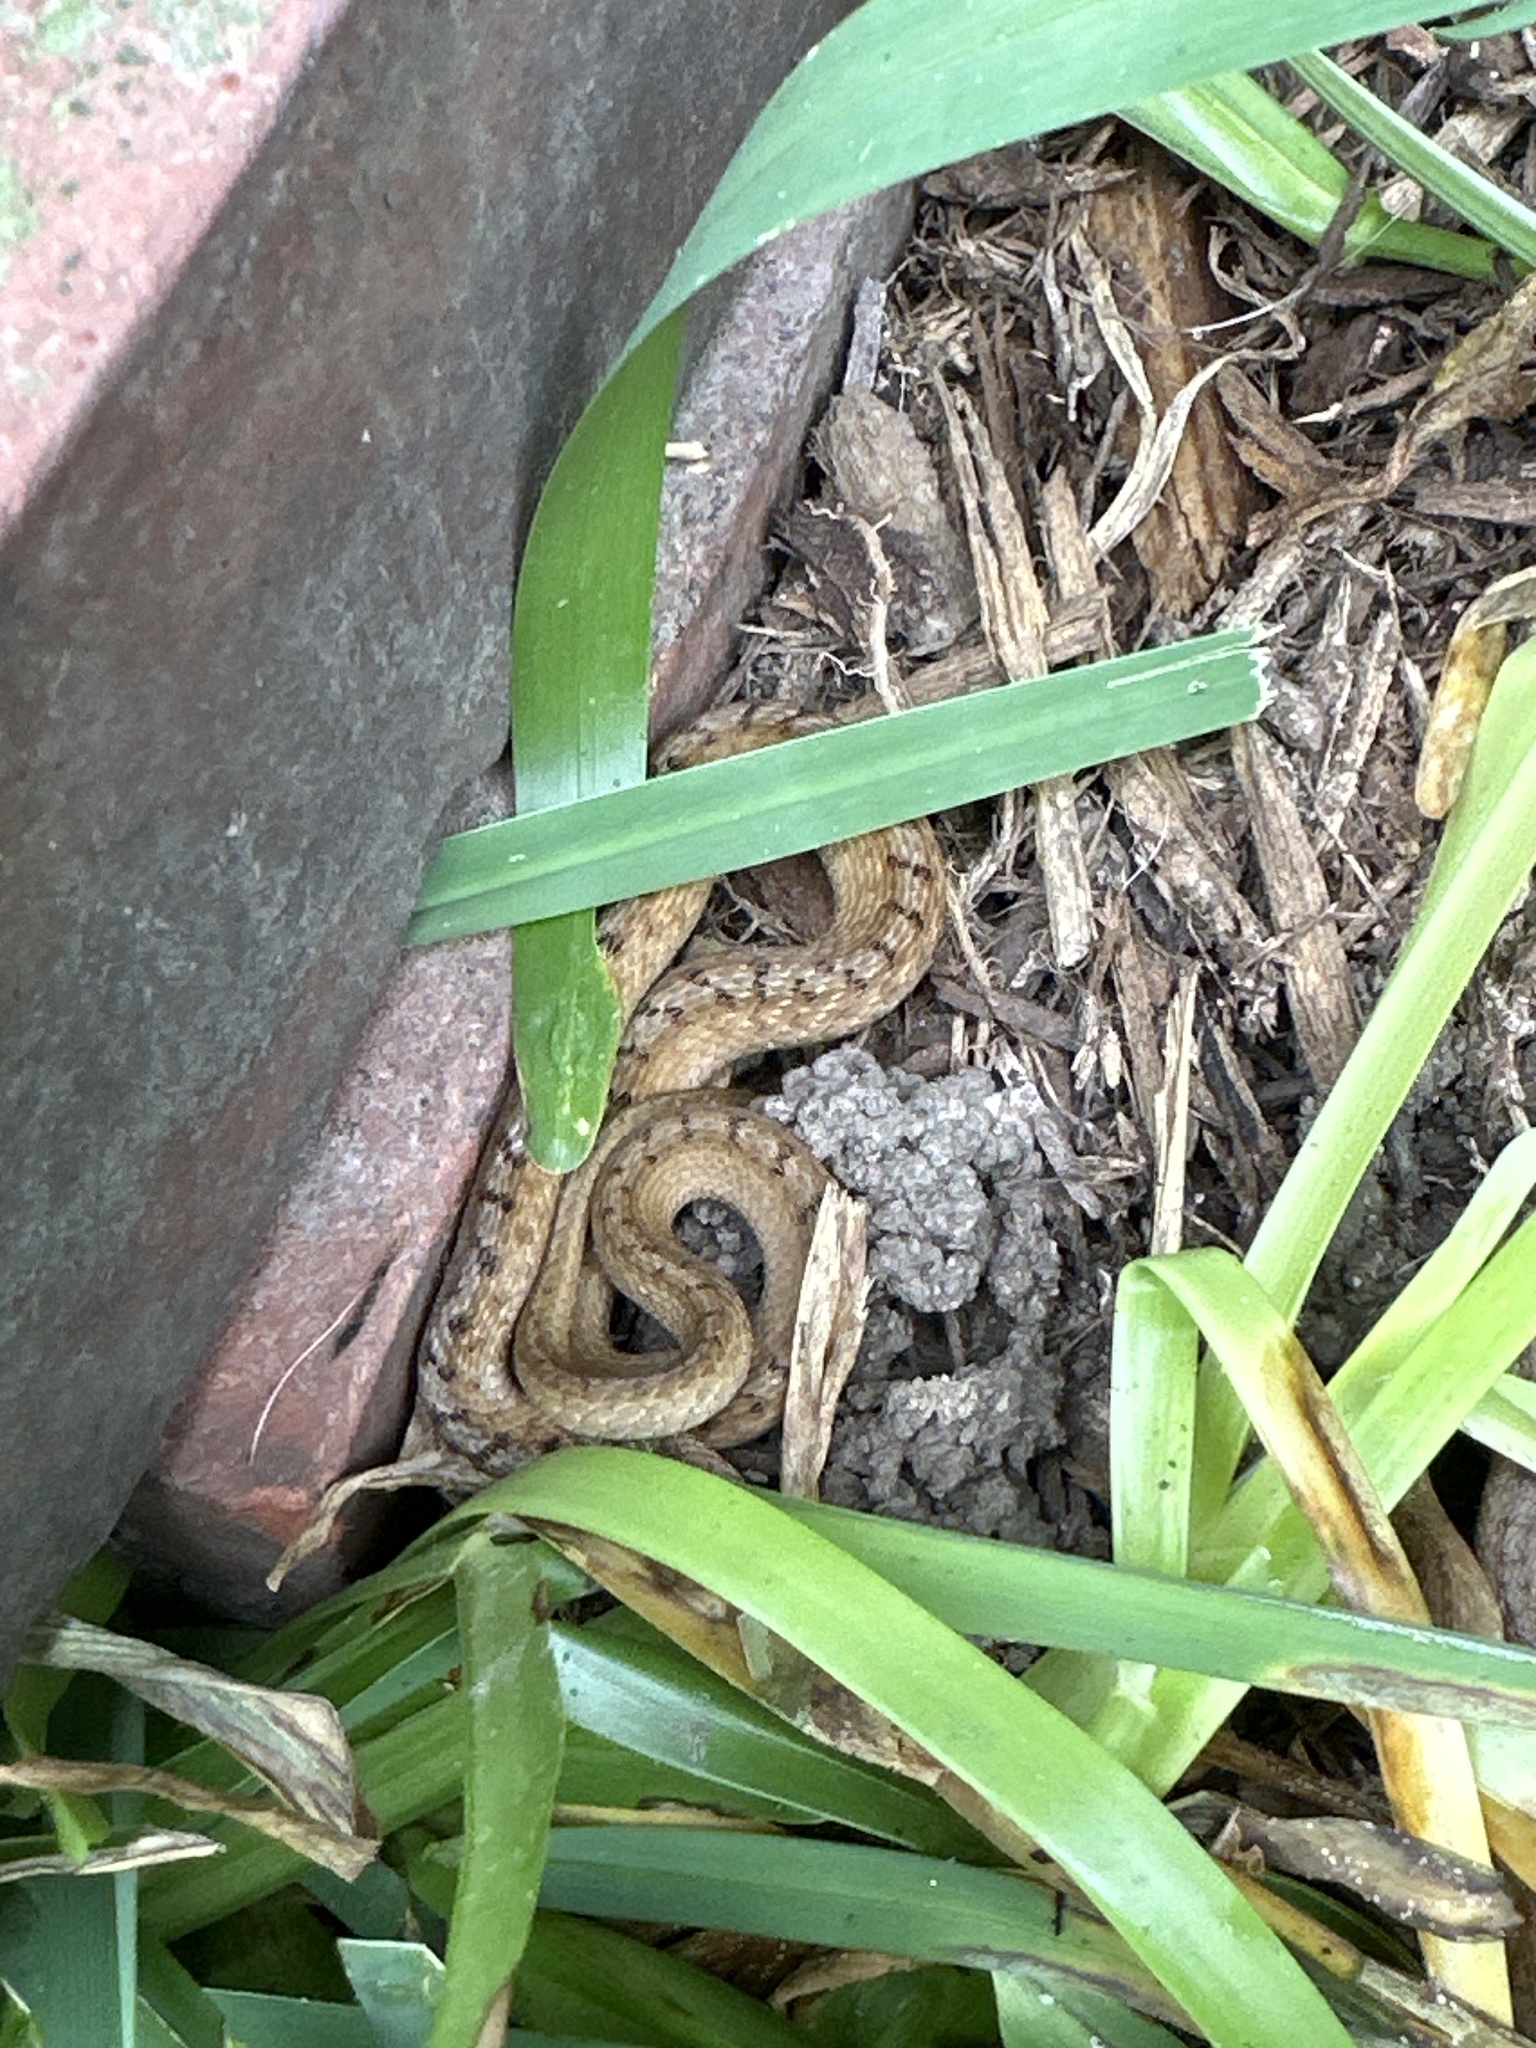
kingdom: Animalia
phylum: Chordata
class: Squamata
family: Colubridae
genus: Storeria
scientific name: Storeria dekayi
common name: (dekay’s) brown snake
